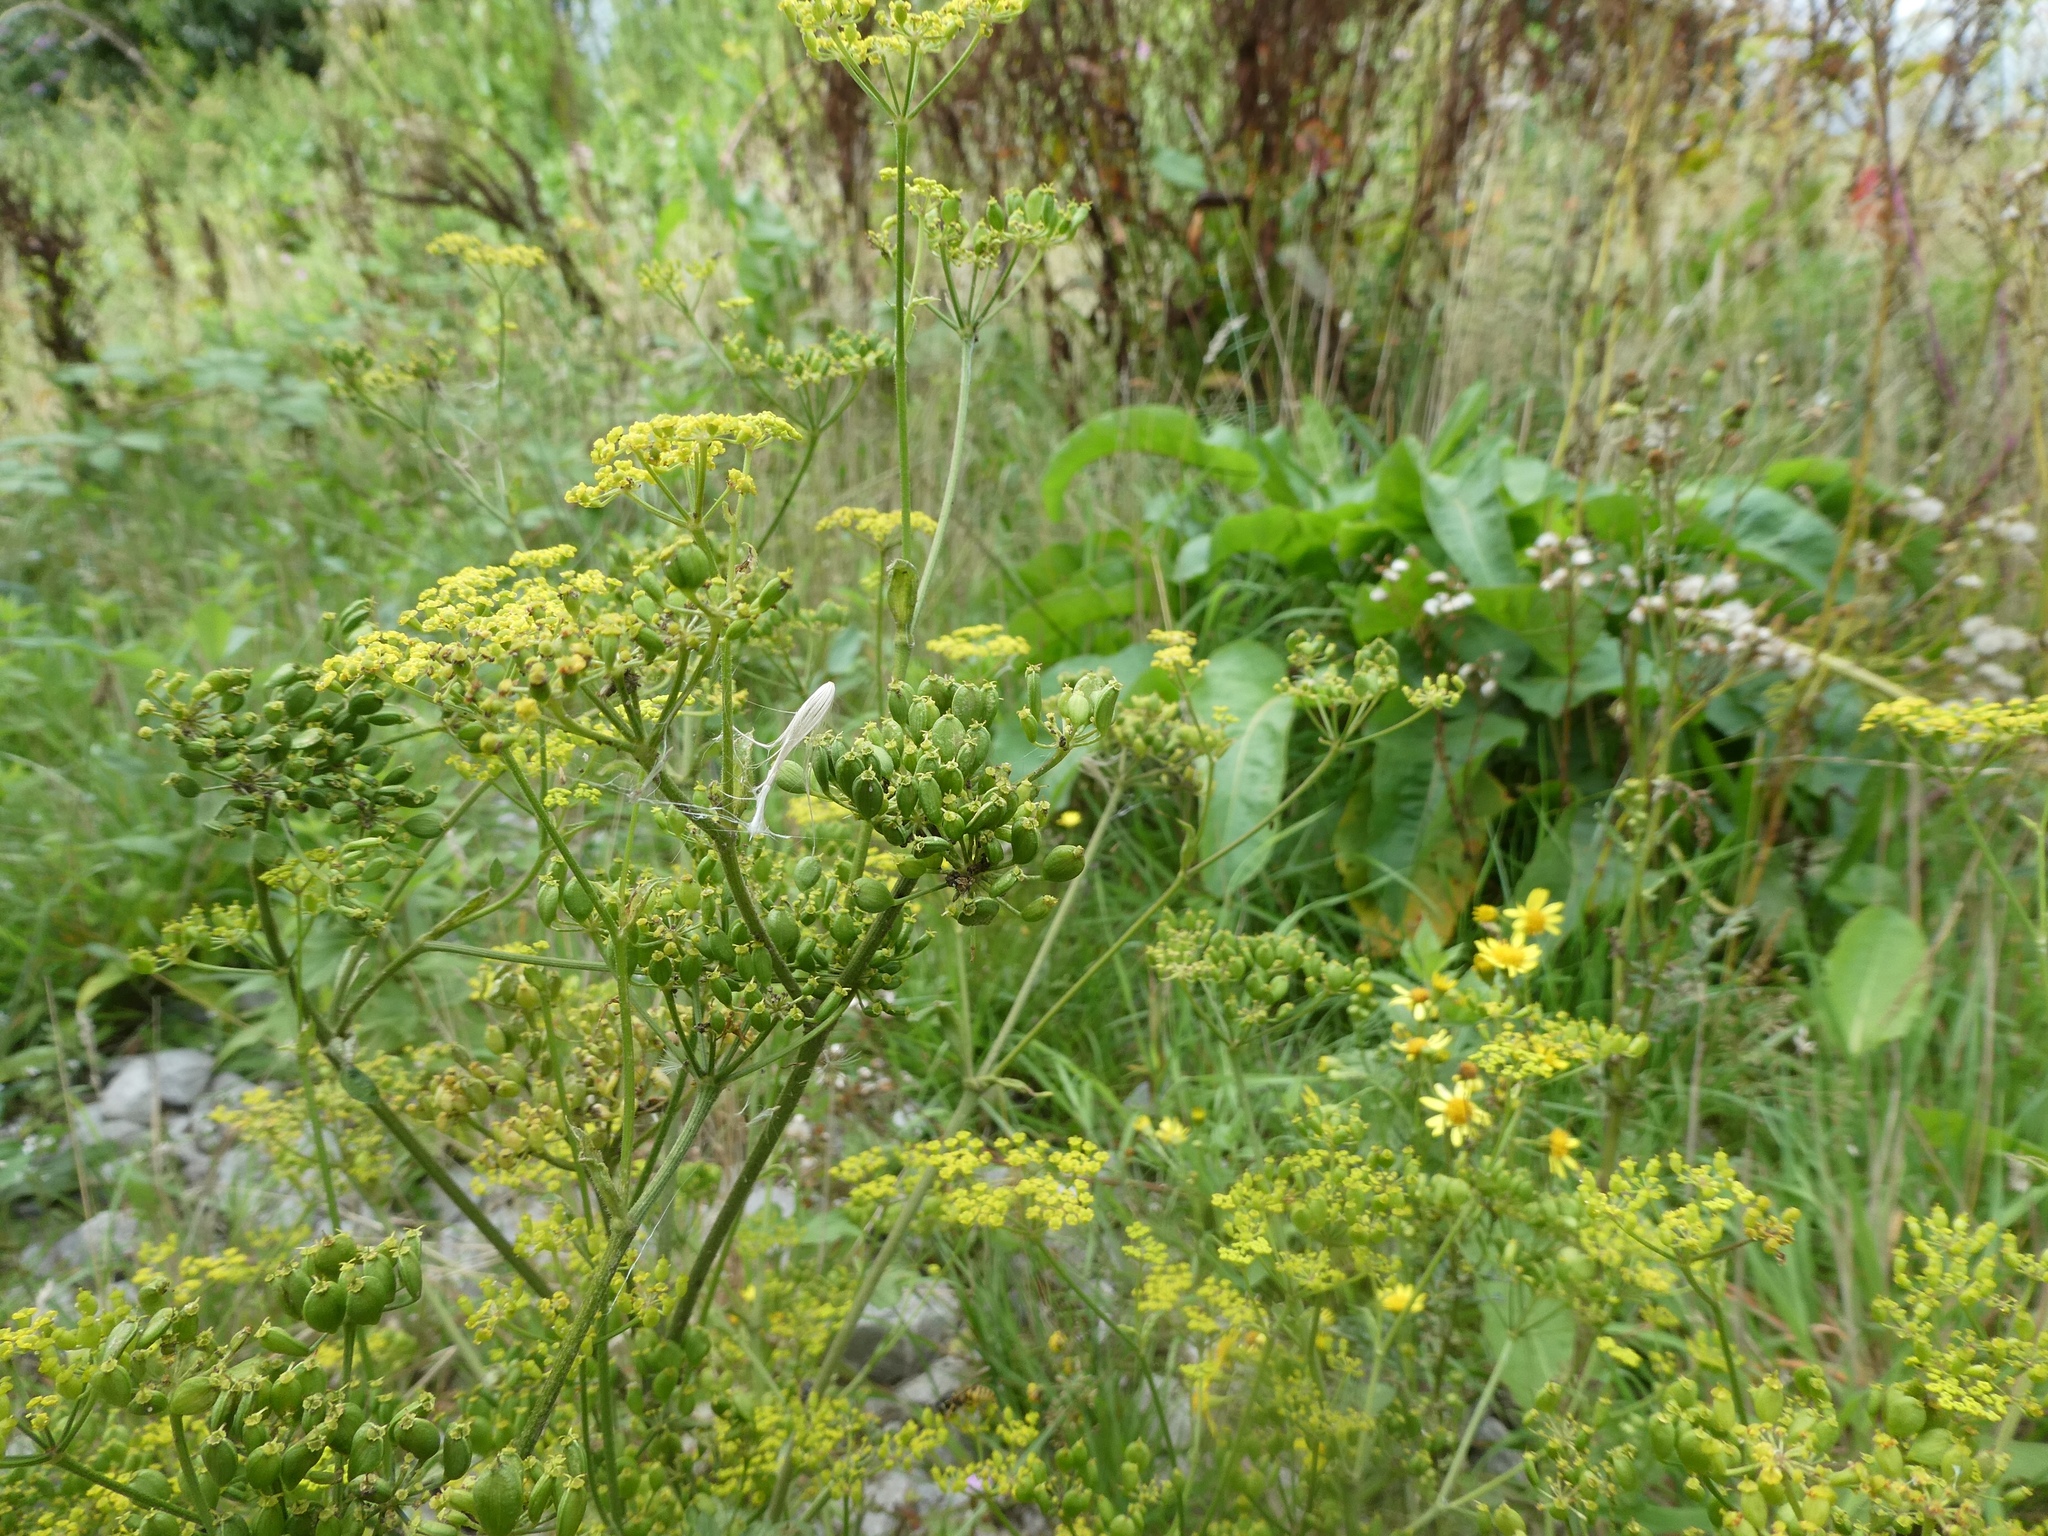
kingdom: Plantae
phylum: Tracheophyta
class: Magnoliopsida
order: Apiales
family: Apiaceae
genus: Pastinaca
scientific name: Pastinaca sativa
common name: Wild parsnip
